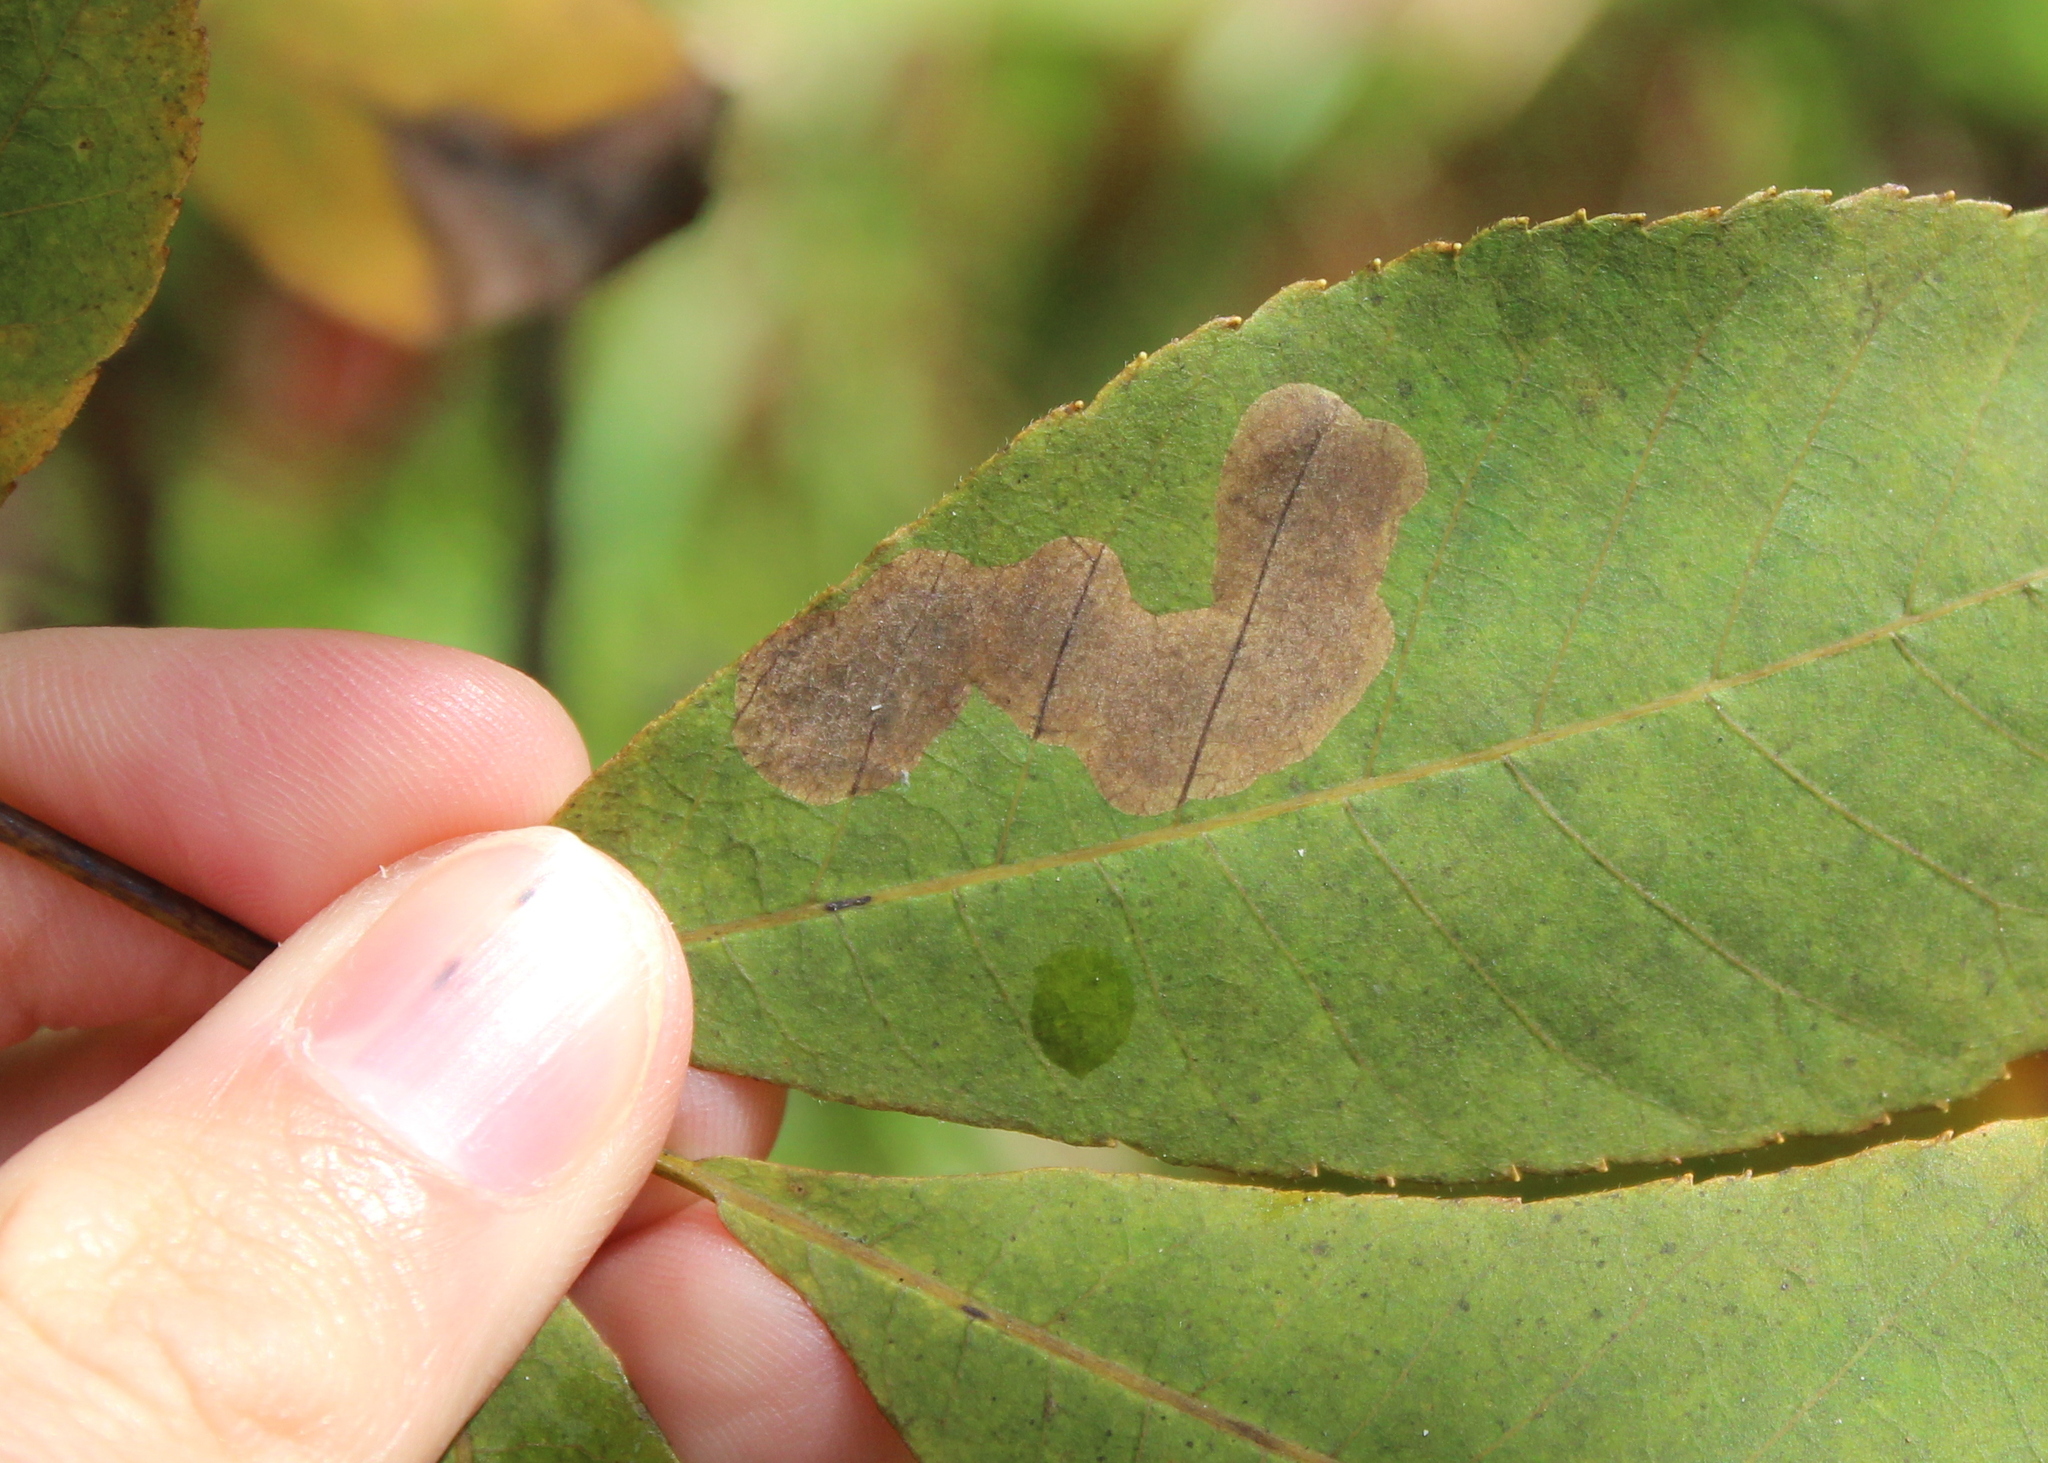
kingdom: Animalia
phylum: Arthropoda
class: Insecta
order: Lepidoptera
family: Gracillariidae
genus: Cameraria
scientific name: Cameraria caryaefoliella
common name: Pecan leafminer moth
